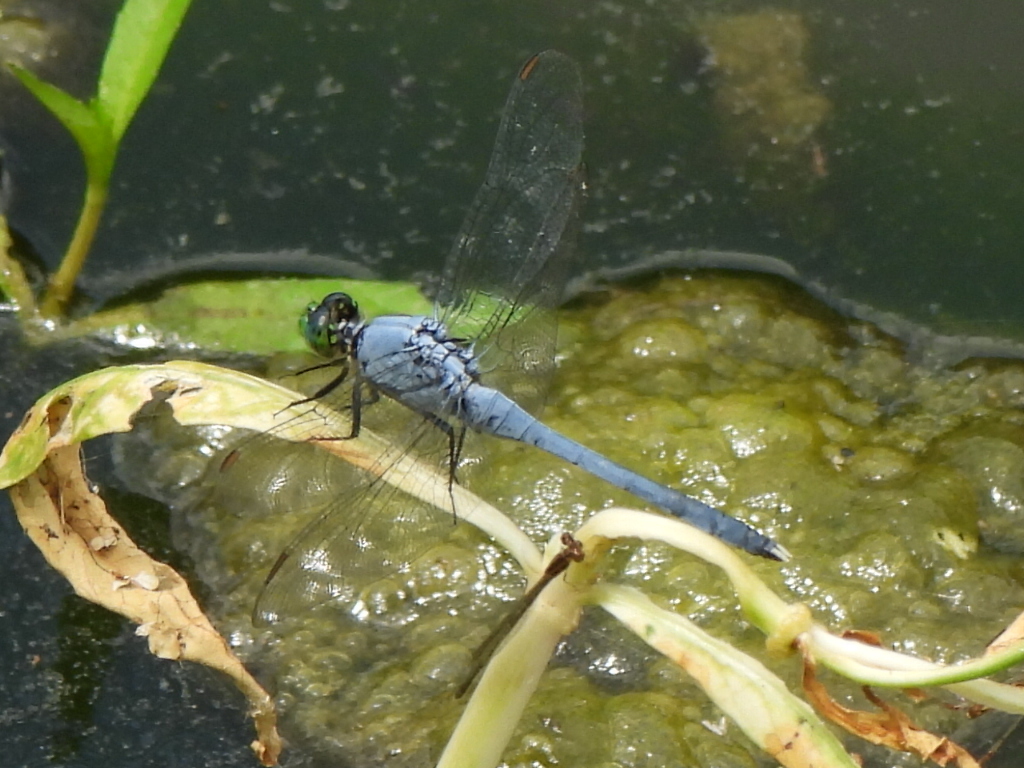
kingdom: Animalia
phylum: Arthropoda
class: Insecta
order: Odonata
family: Libellulidae
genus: Erythemis
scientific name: Erythemis simplicicollis
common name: Eastern pondhawk
